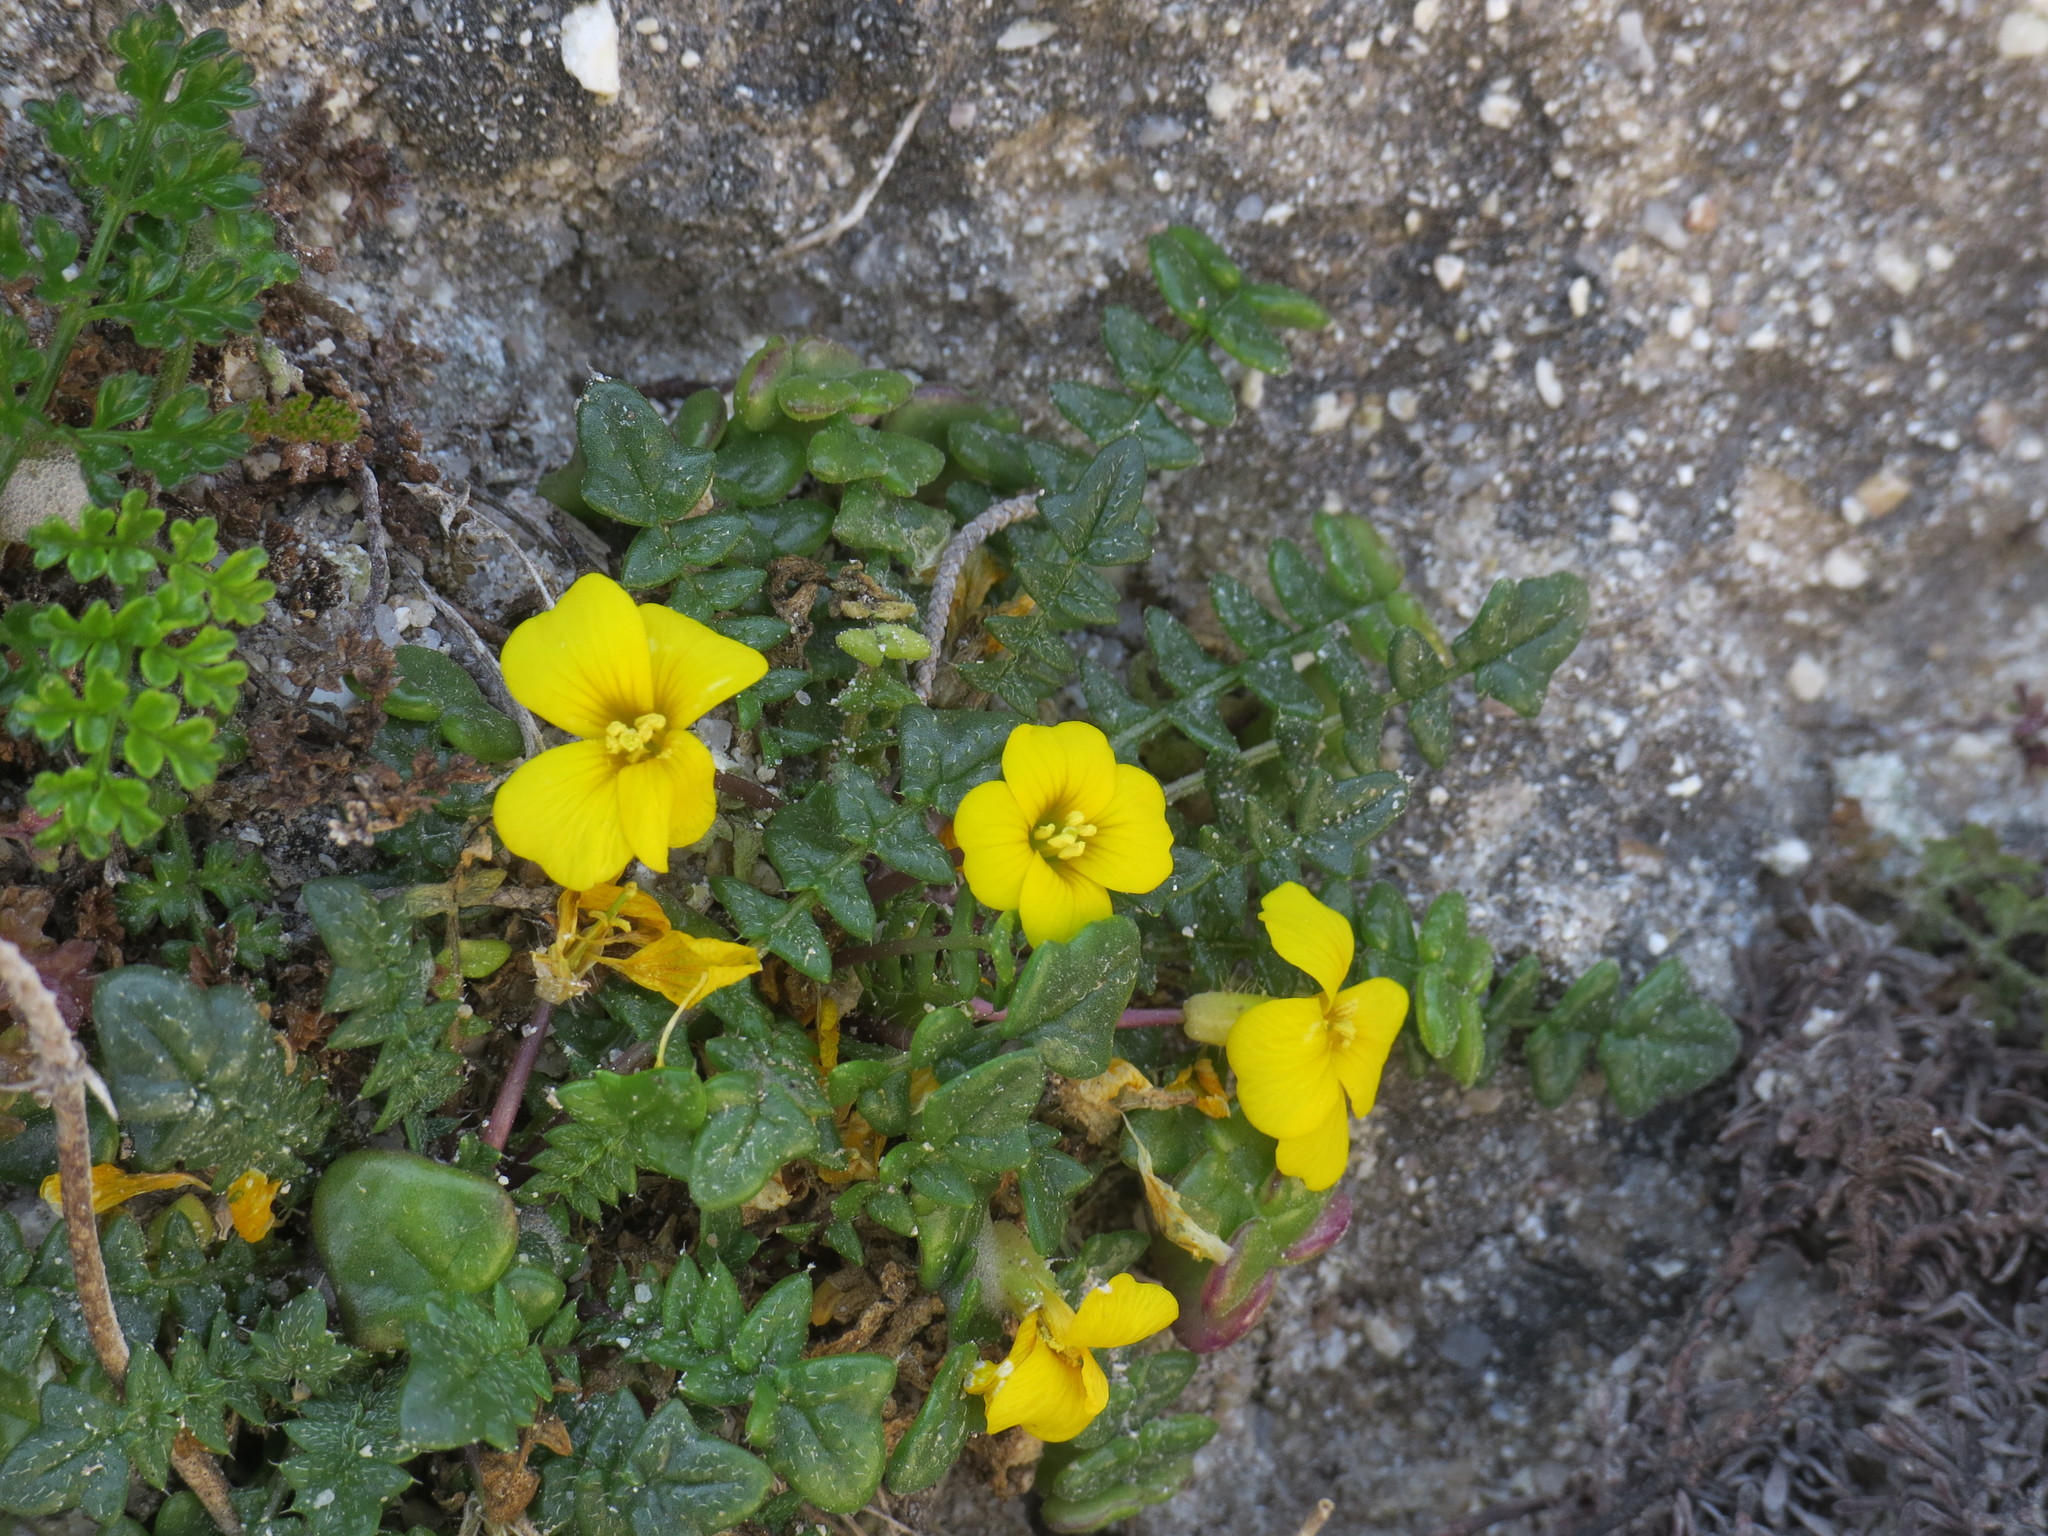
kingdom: Plantae
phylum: Tracheophyta
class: Magnoliopsida
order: Brassicales
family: Brassicaceae
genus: Morisia
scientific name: Morisia monanthos
